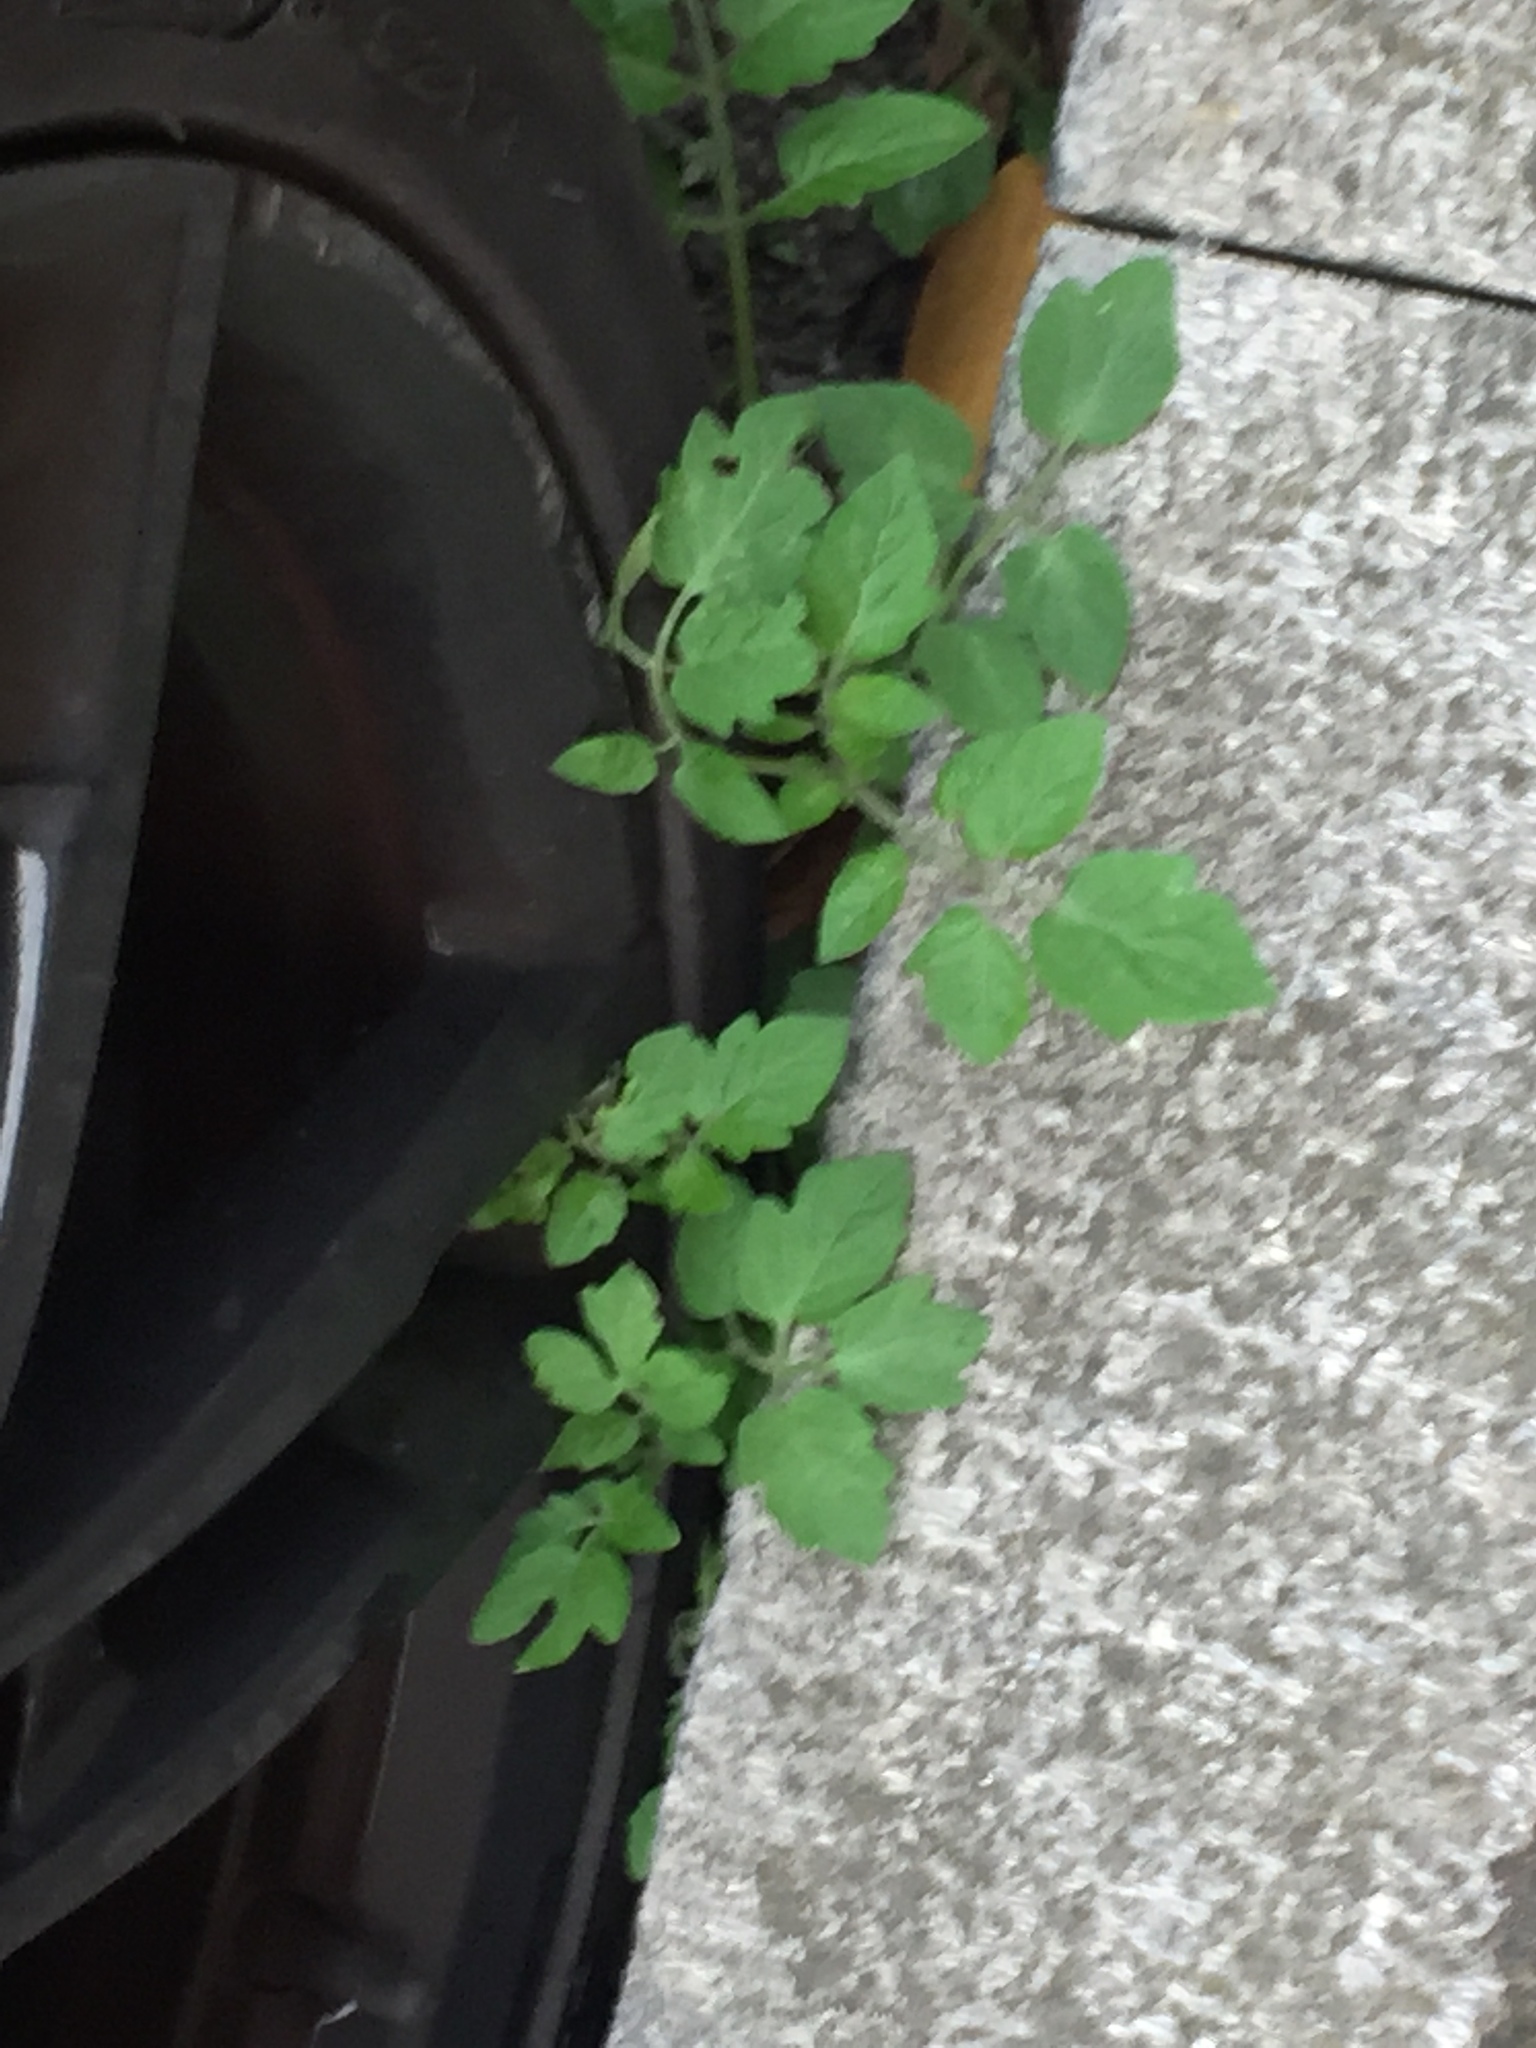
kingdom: Plantae
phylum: Tracheophyta
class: Magnoliopsida
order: Solanales
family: Solanaceae
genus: Solanum
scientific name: Solanum lycopersicum
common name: Garden tomato
